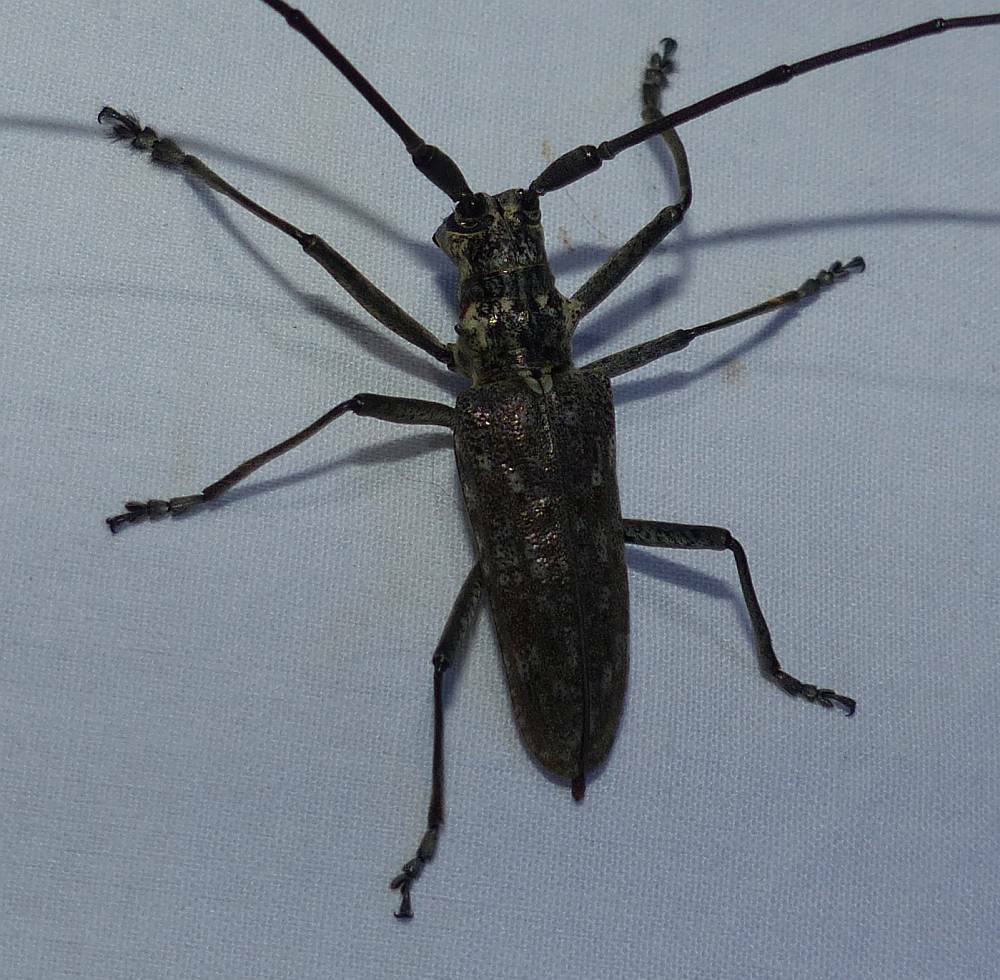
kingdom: Animalia
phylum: Arthropoda
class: Insecta
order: Coleoptera
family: Cerambycidae
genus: Monochamus
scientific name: Monochamus notatus
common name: Northeastern pine sawyer beetle
